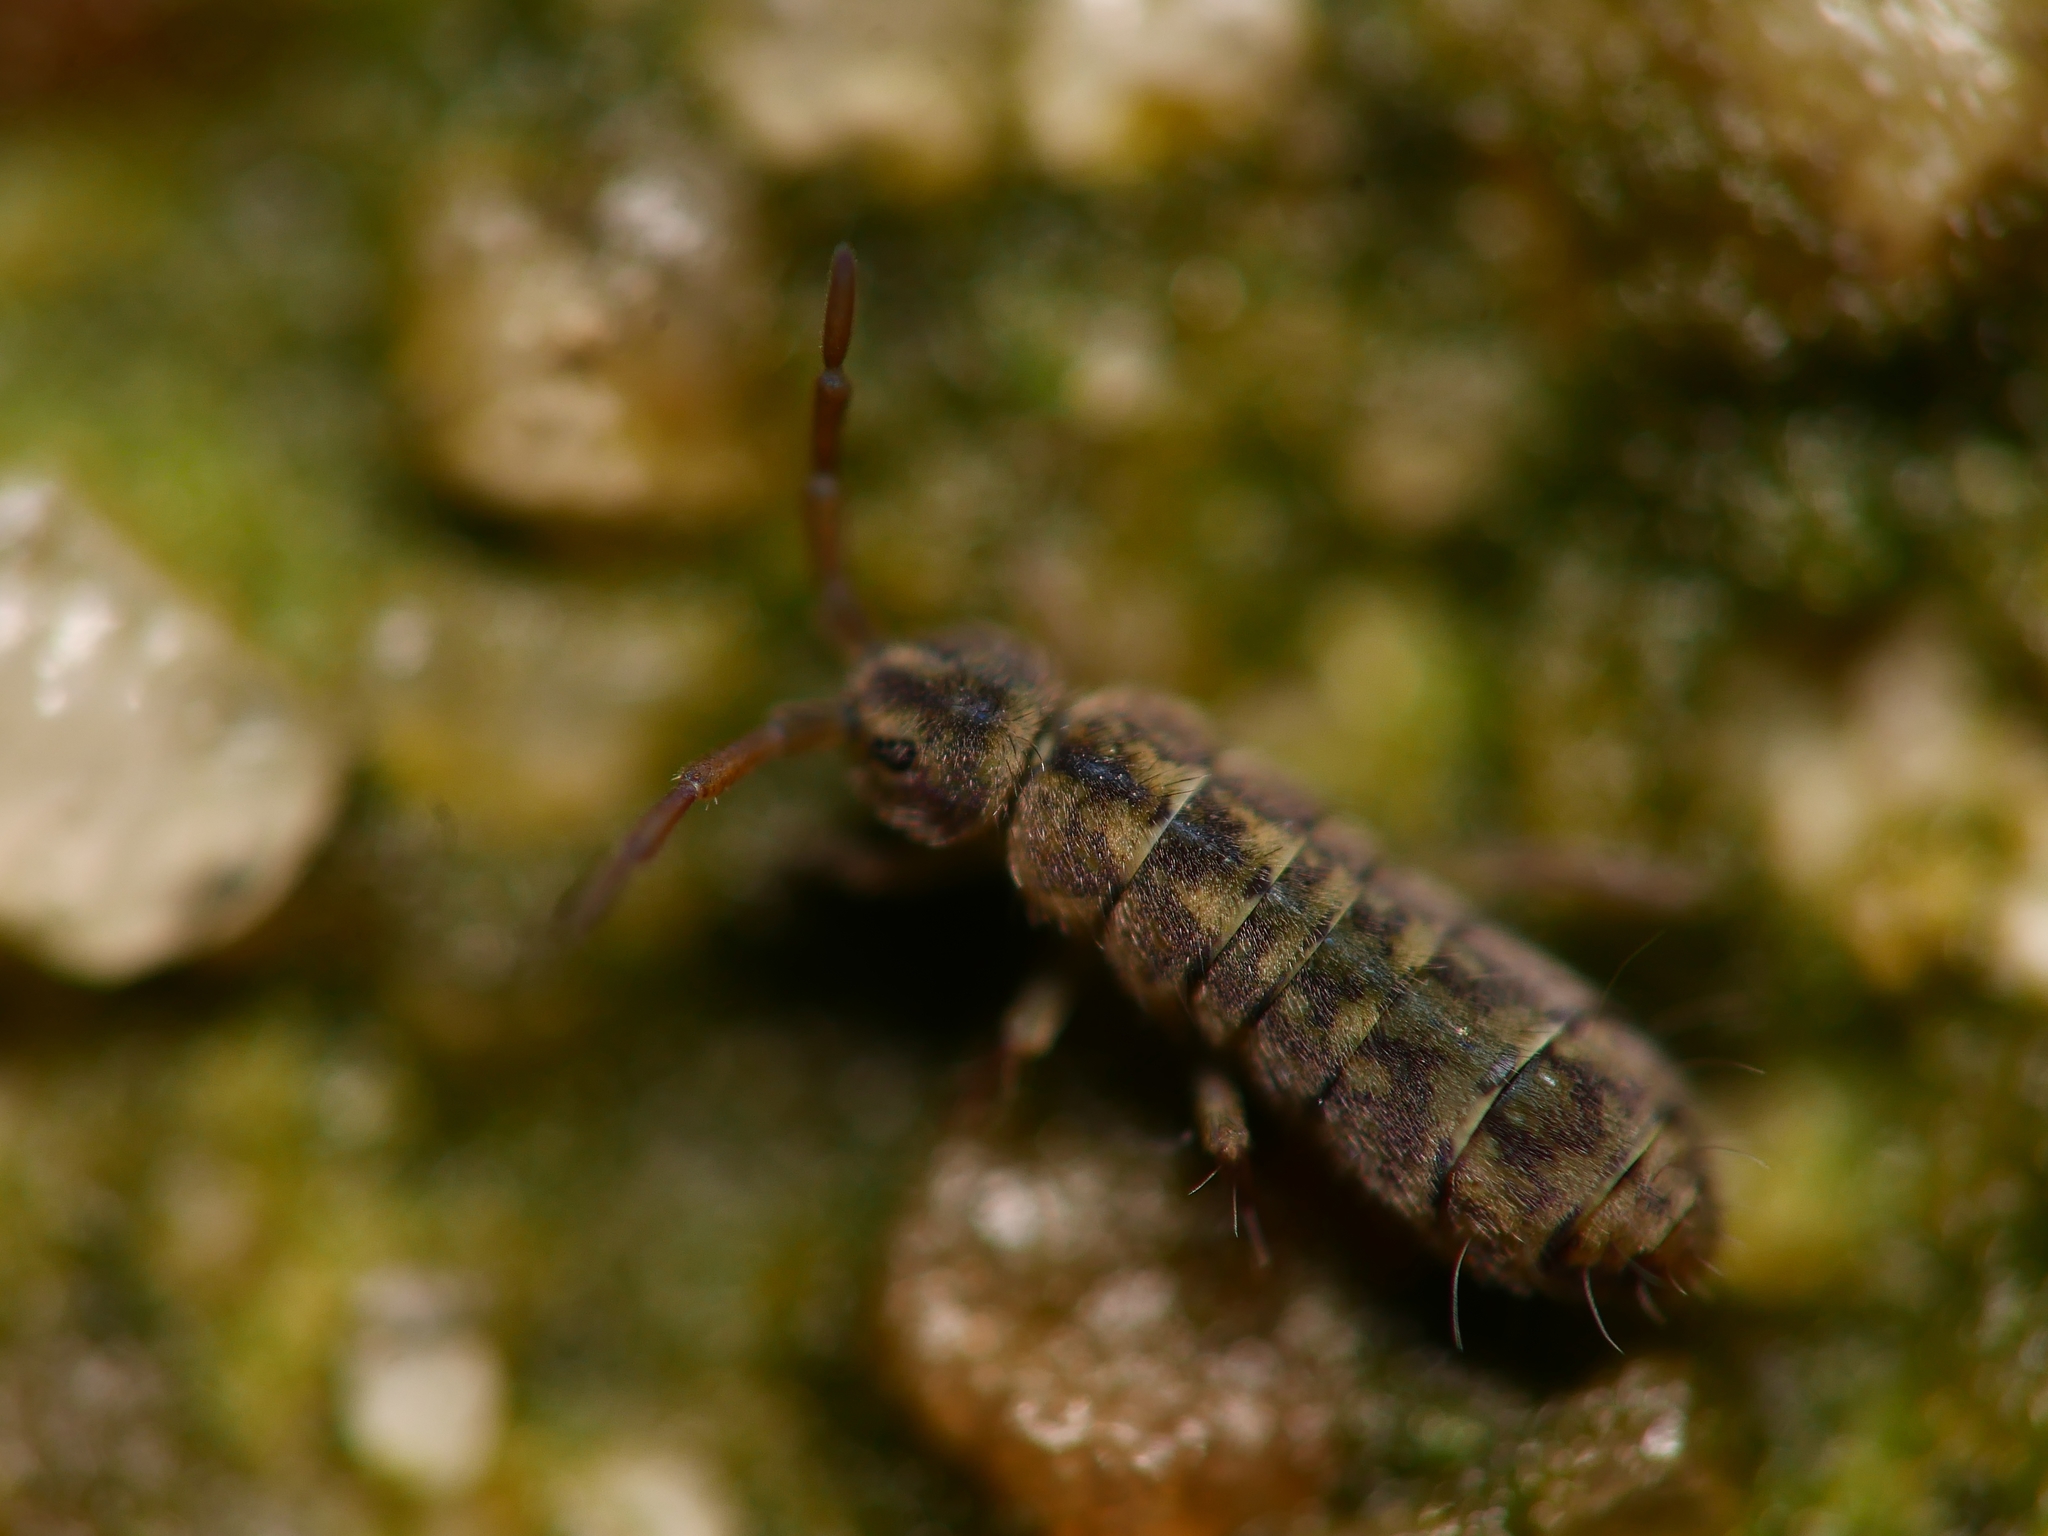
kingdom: Animalia
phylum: Arthropoda
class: Collembola
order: Entomobryomorpha
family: Isotomidae
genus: Isotomurus
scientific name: Isotomurus maculatus
